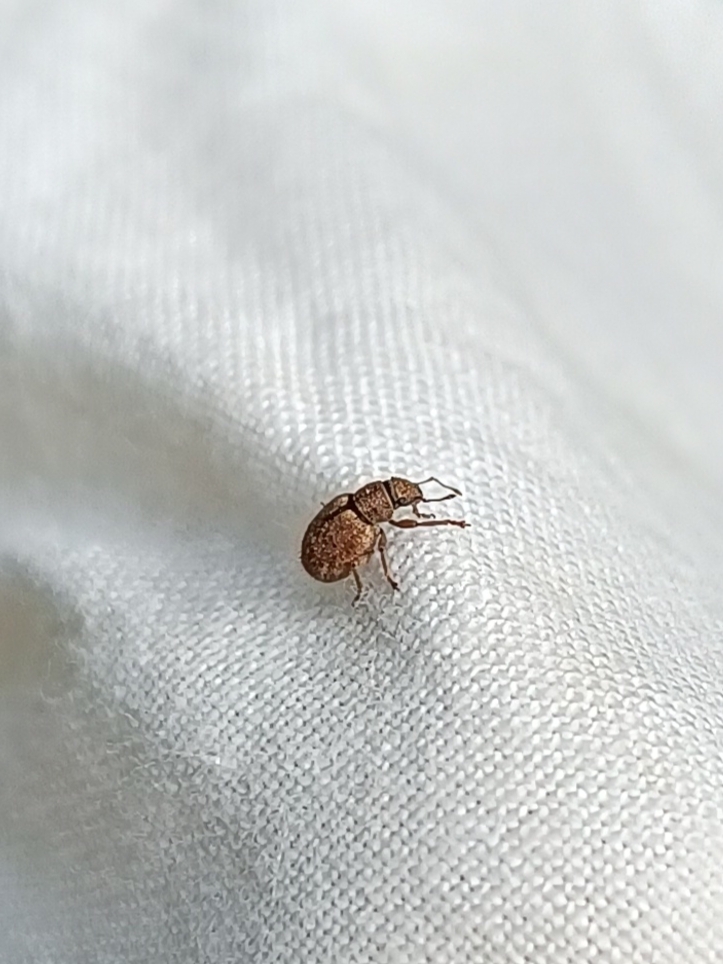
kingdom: Animalia
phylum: Arthropoda
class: Insecta
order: Coleoptera
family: Curculionidae
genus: Strophosoma
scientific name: Strophosoma melanogrammum
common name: Weevil
